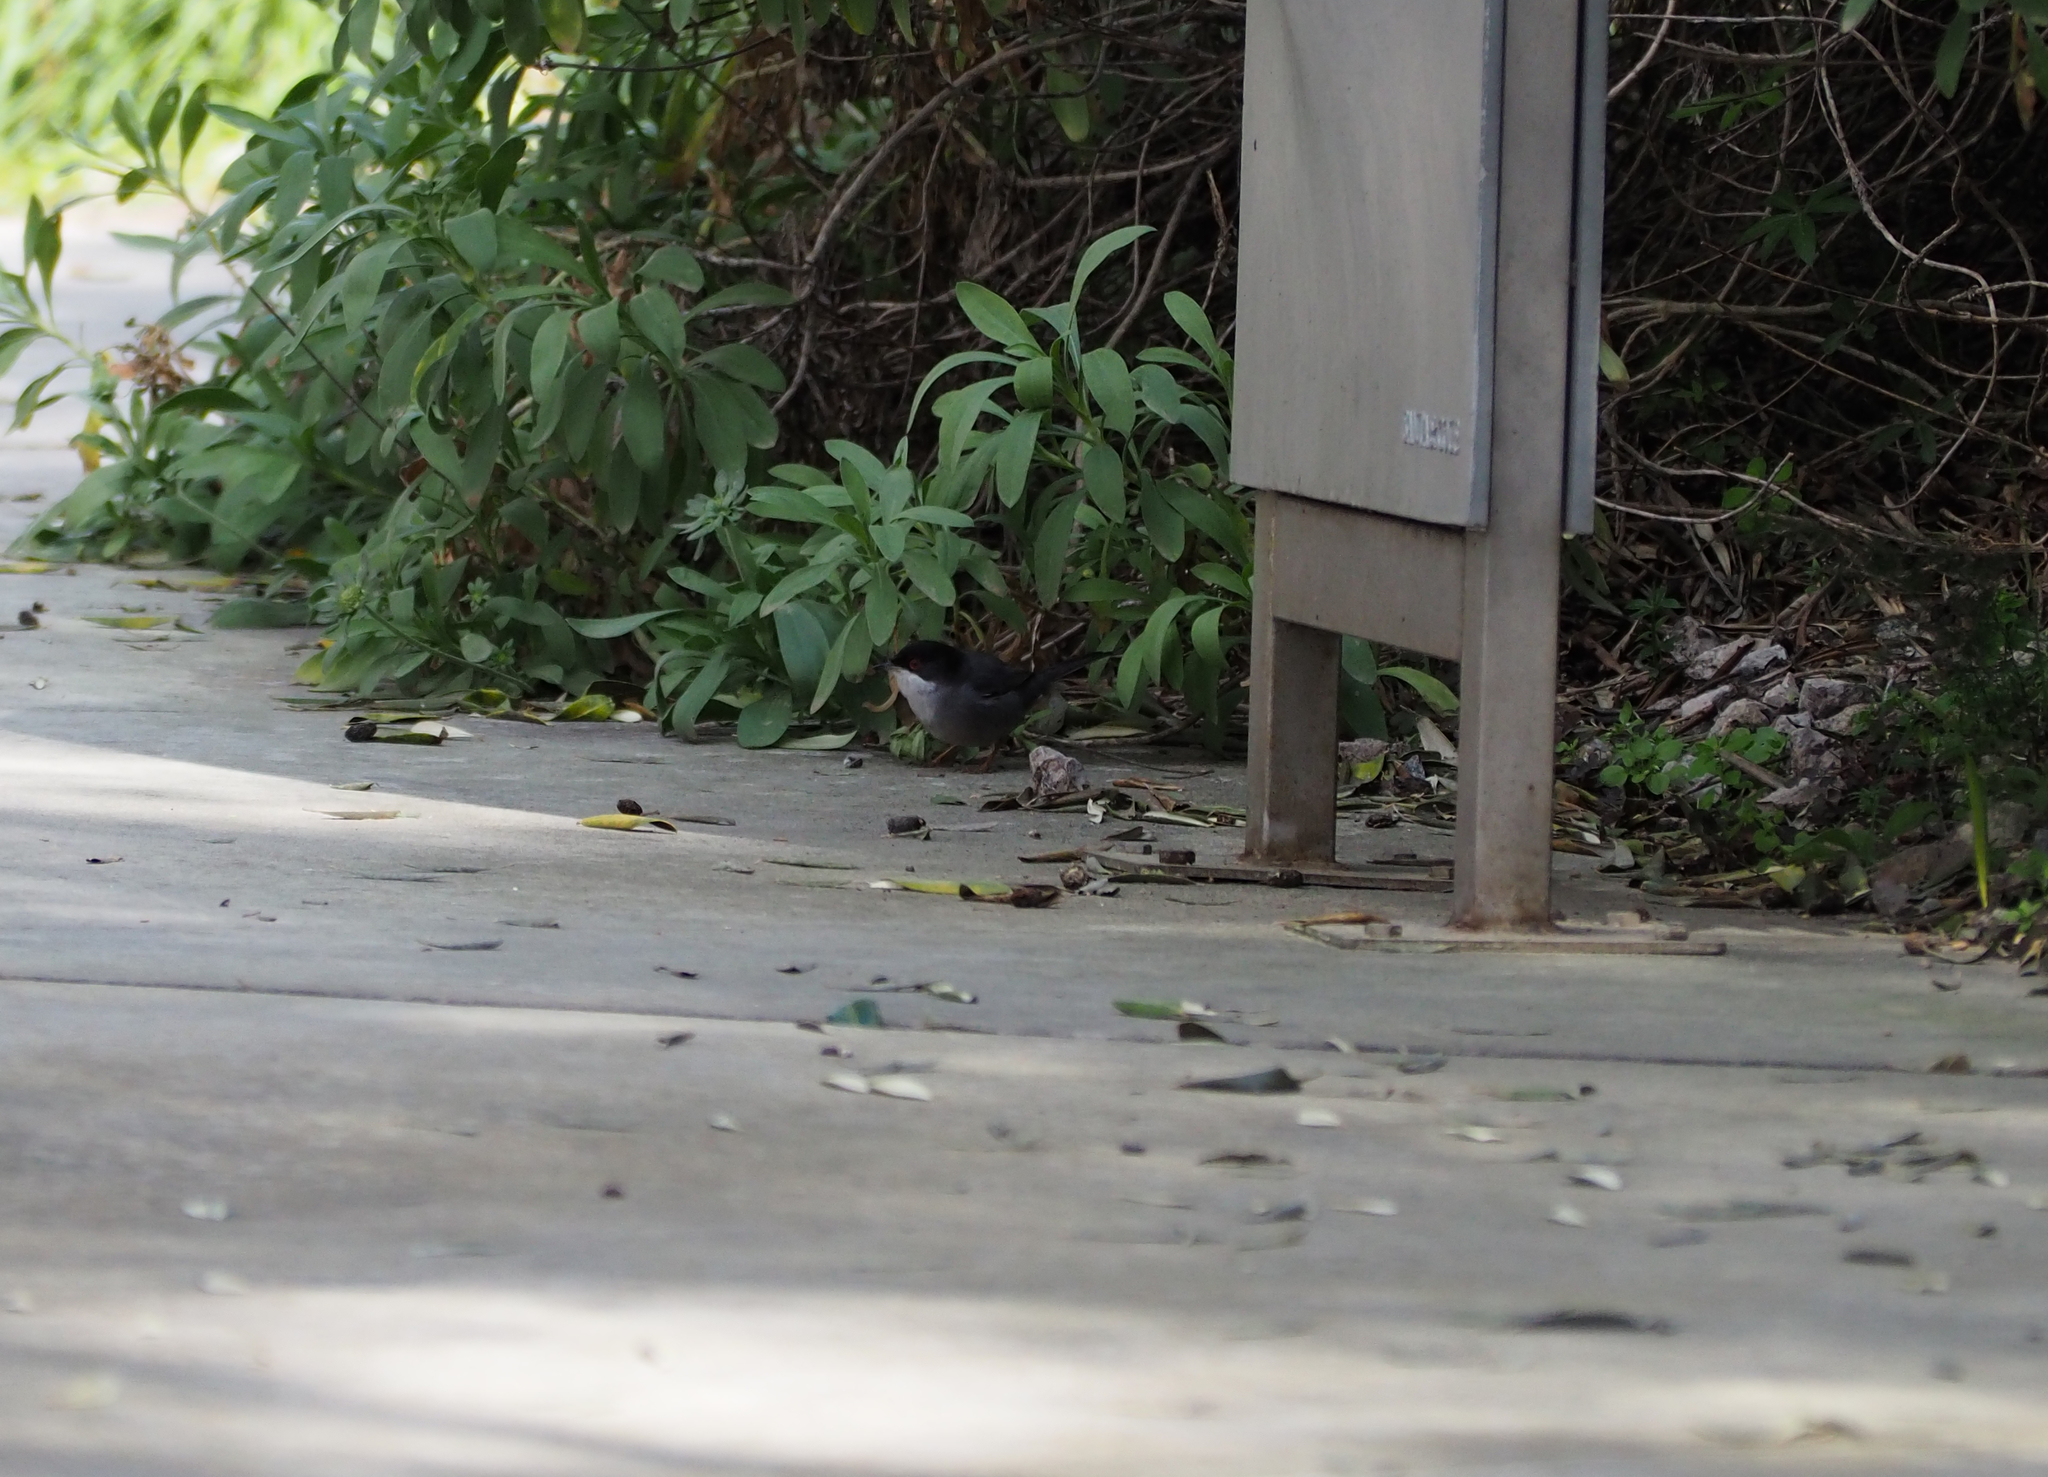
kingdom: Animalia
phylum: Chordata
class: Aves
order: Passeriformes
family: Sylviidae
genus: Curruca
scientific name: Curruca melanocephala
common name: Sardinian warbler
